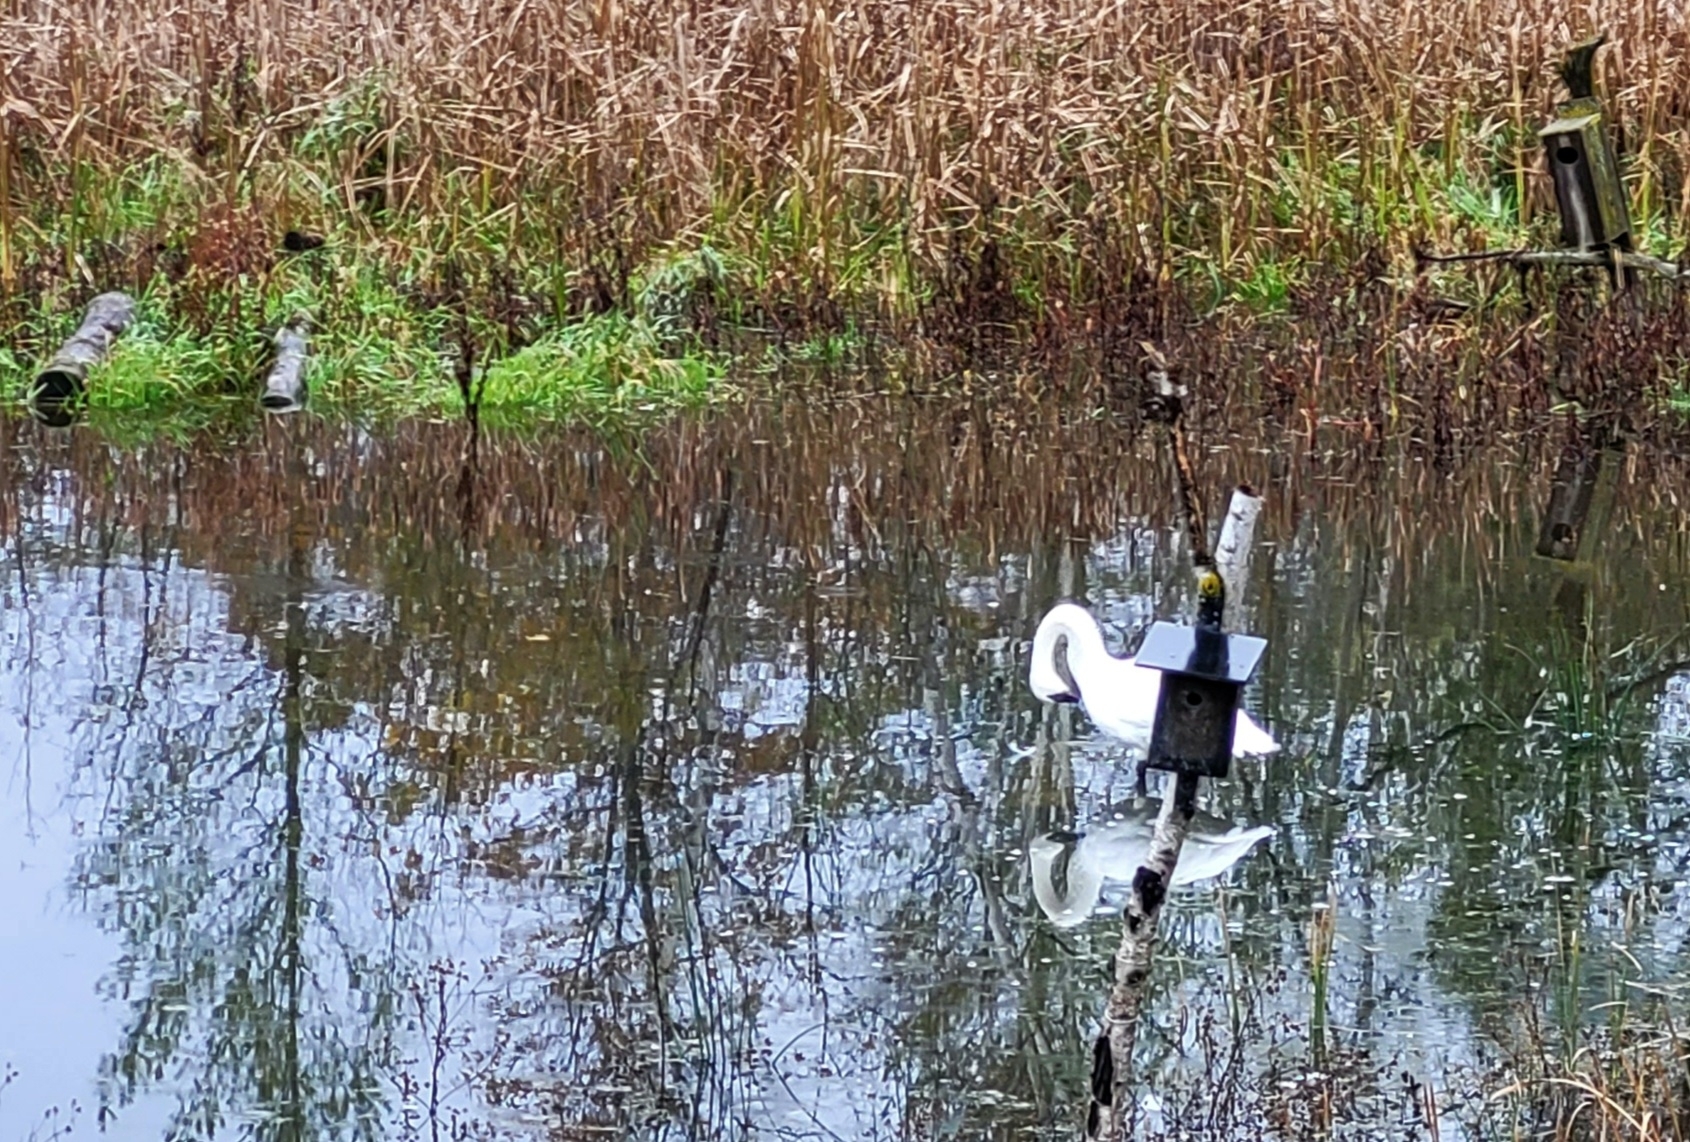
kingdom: Animalia
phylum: Chordata
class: Aves
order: Anseriformes
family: Anatidae
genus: Cygnus
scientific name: Cygnus buccinator
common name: Trumpeter swan
